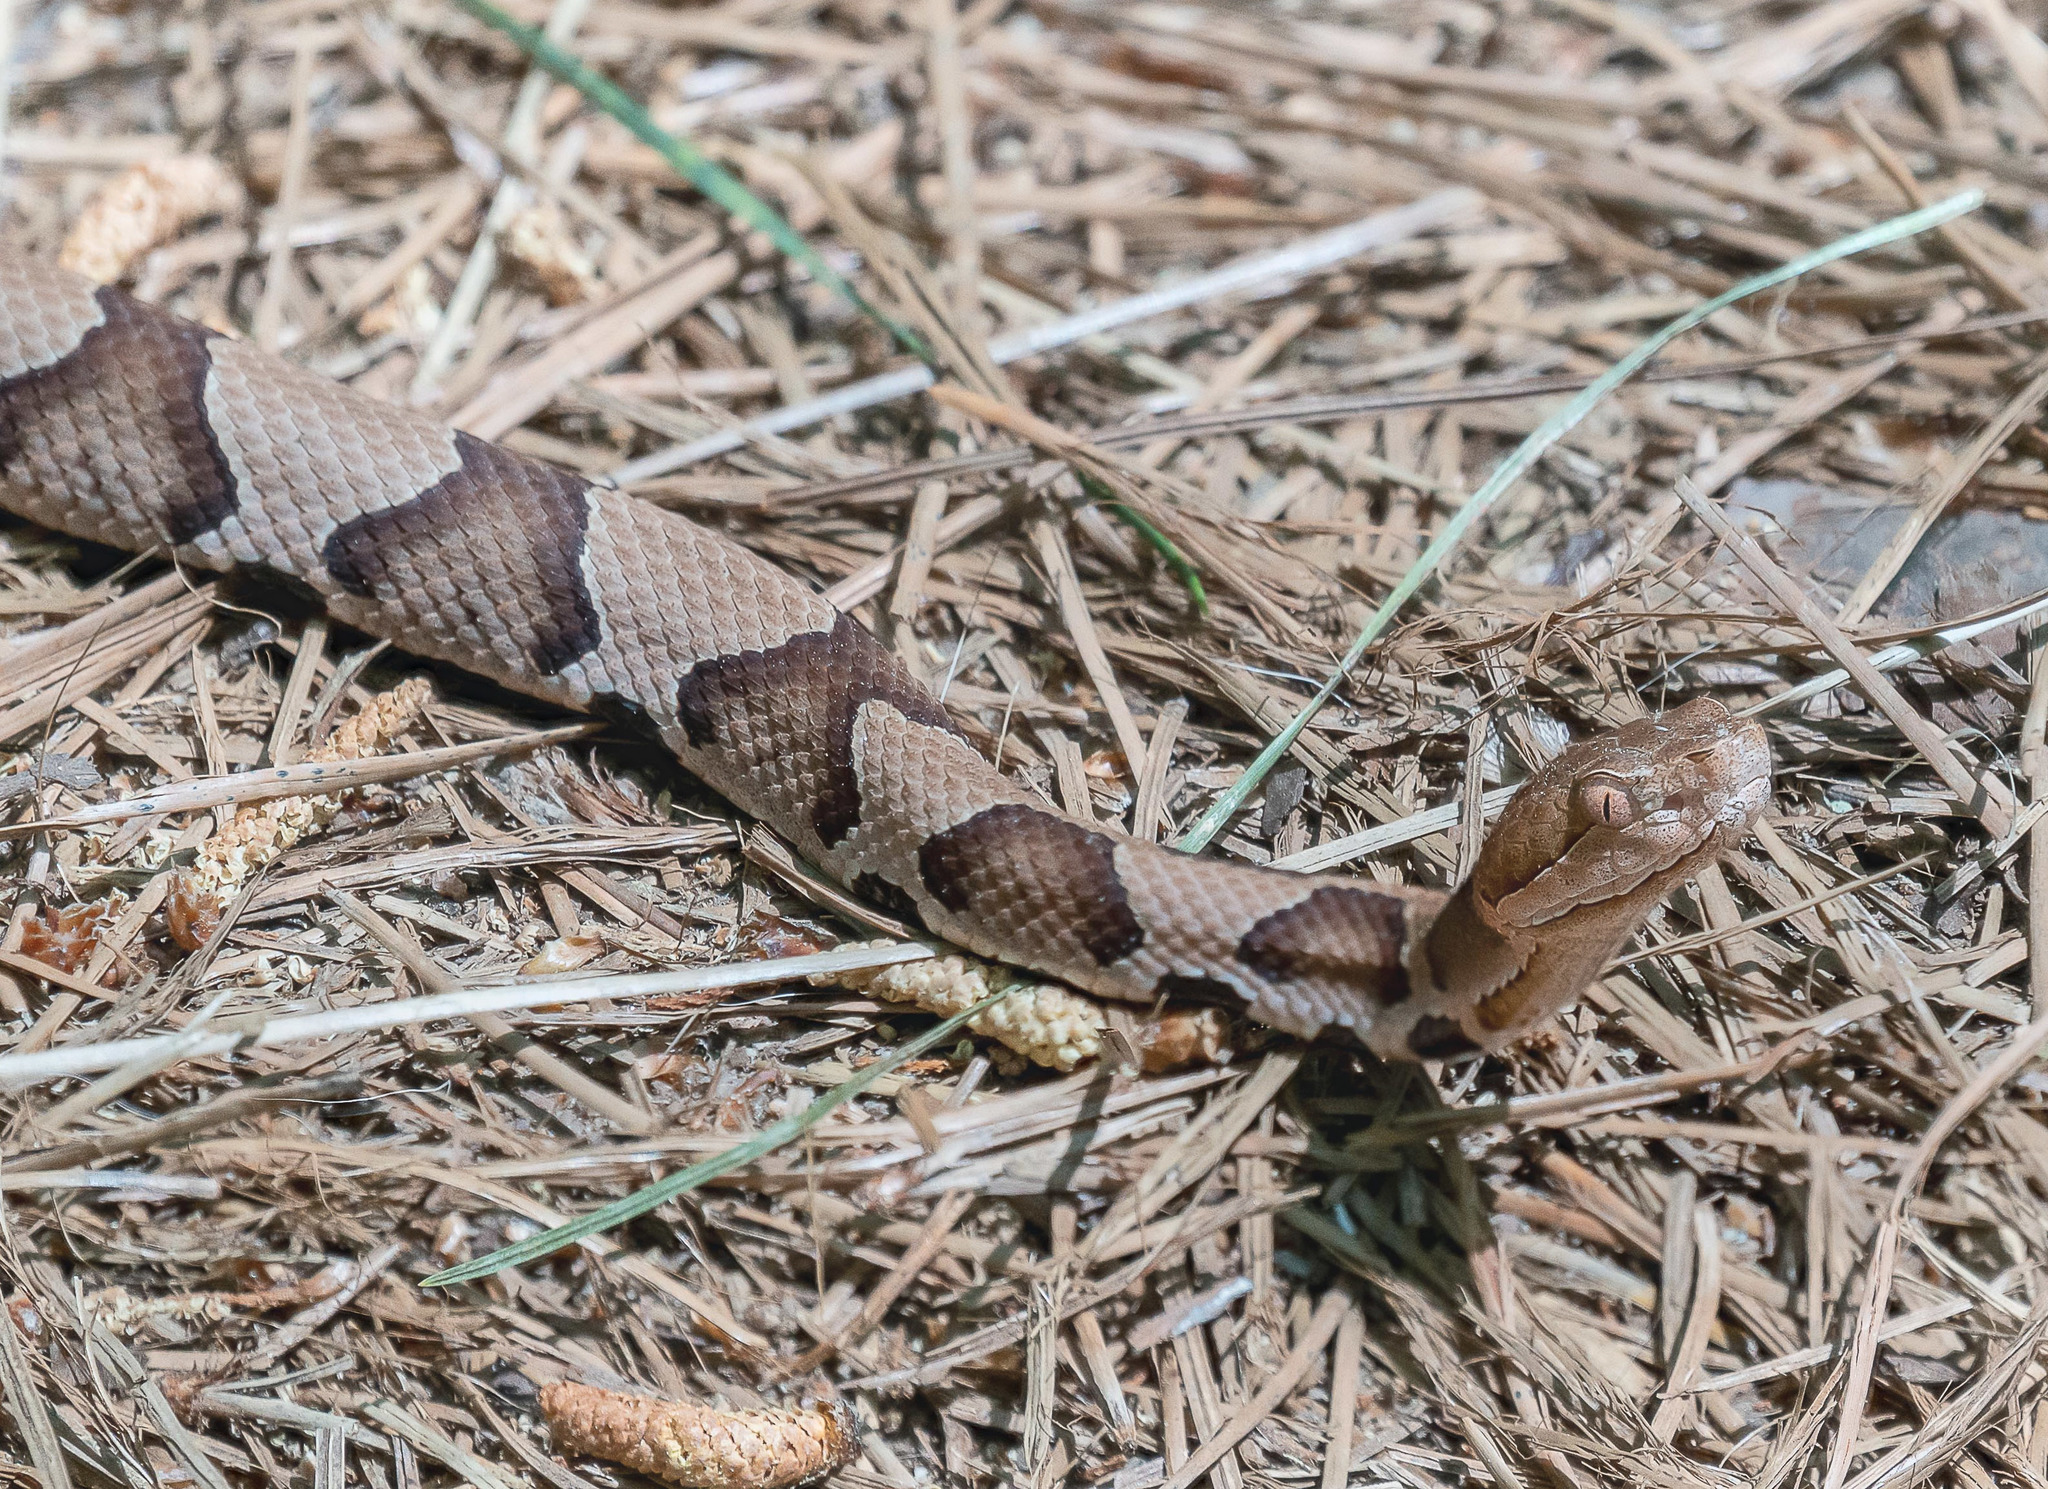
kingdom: Animalia
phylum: Chordata
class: Squamata
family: Viperidae
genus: Agkistrodon
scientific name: Agkistrodon contortrix
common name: Northern copperhead
